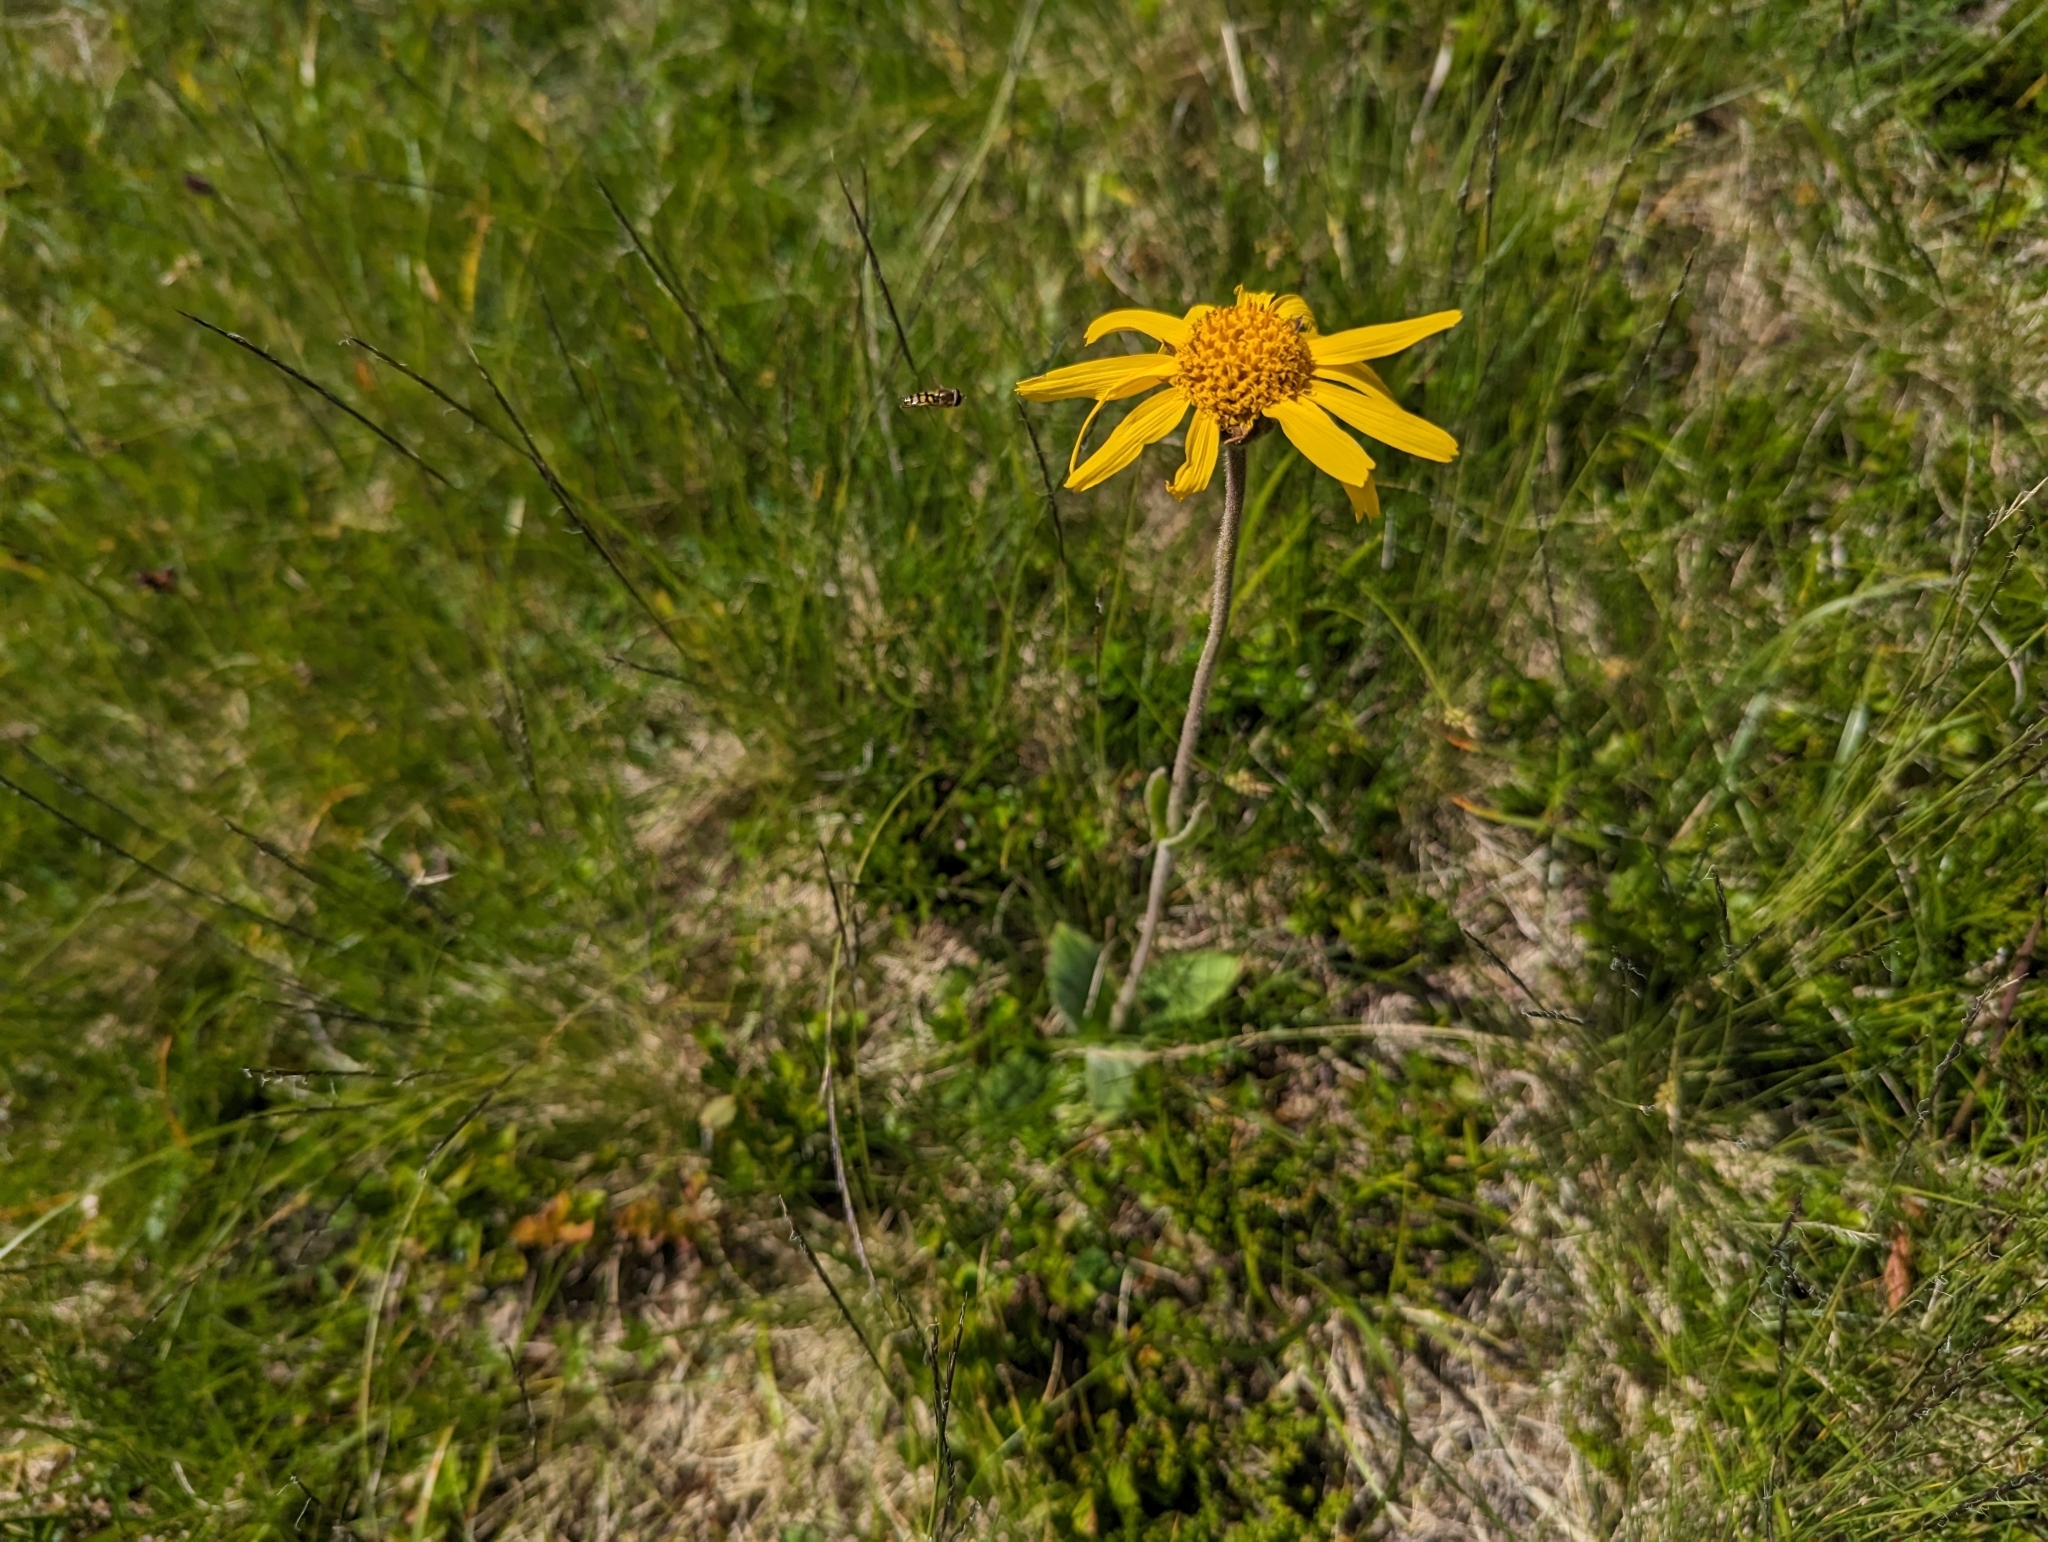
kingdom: Plantae
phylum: Tracheophyta
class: Magnoliopsida
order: Asterales
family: Asteraceae
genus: Arnica
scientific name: Arnica montana
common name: Leopard's bane
